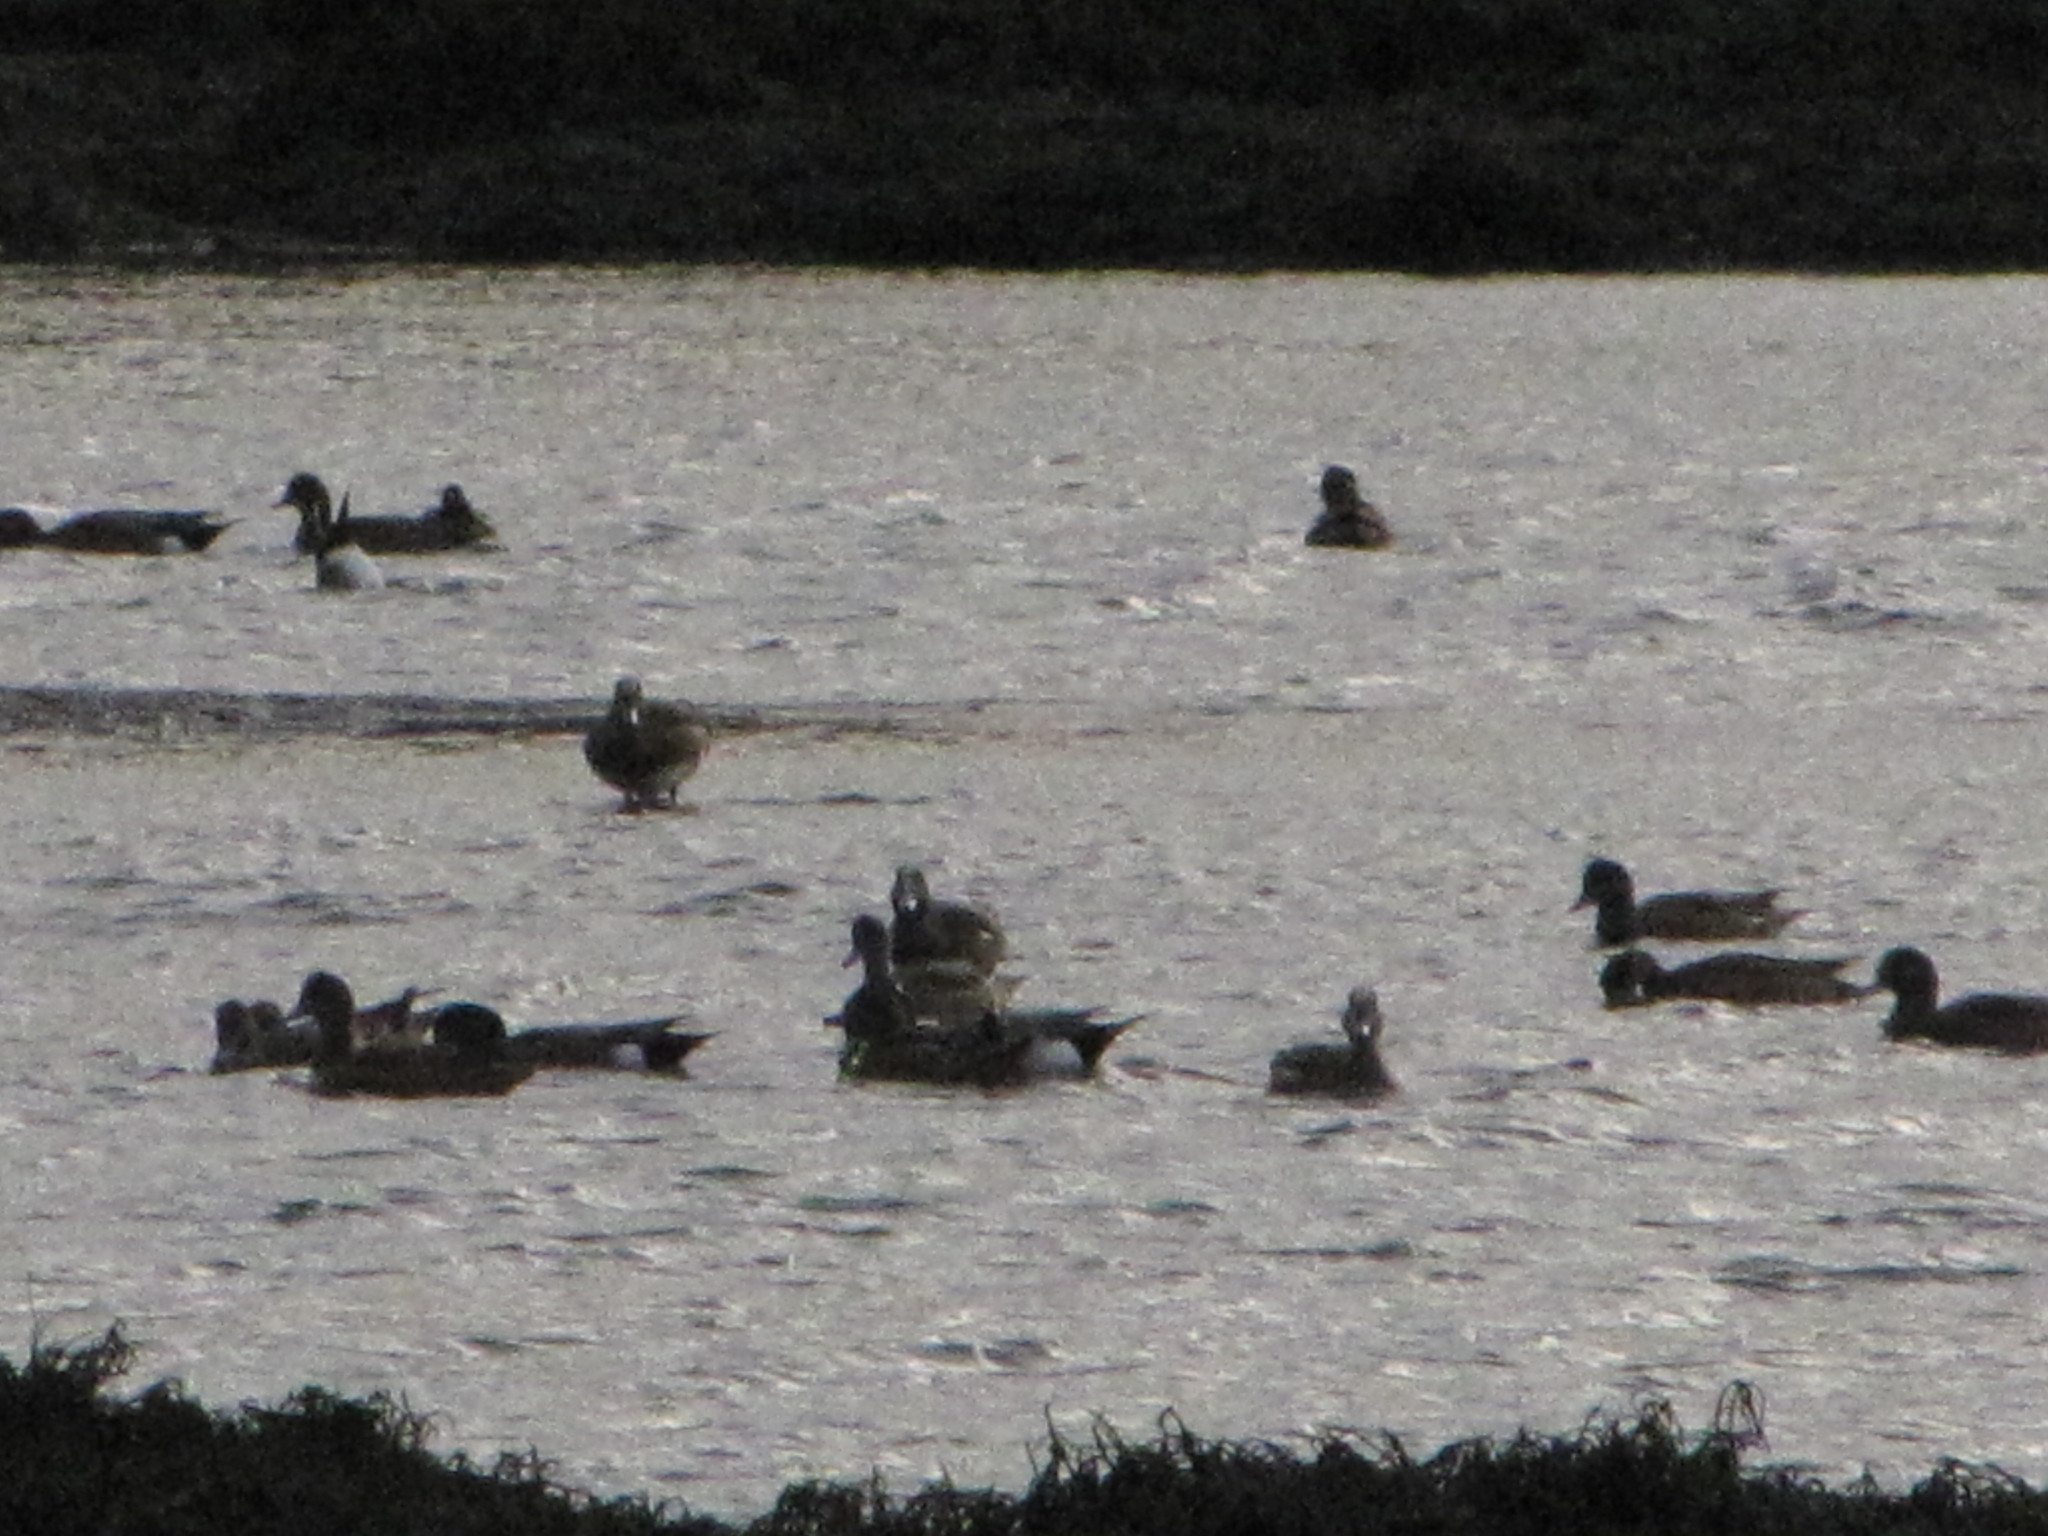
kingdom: Animalia
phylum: Chordata
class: Aves
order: Anseriformes
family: Anatidae
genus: Mareca
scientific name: Mareca americana
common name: American wigeon
